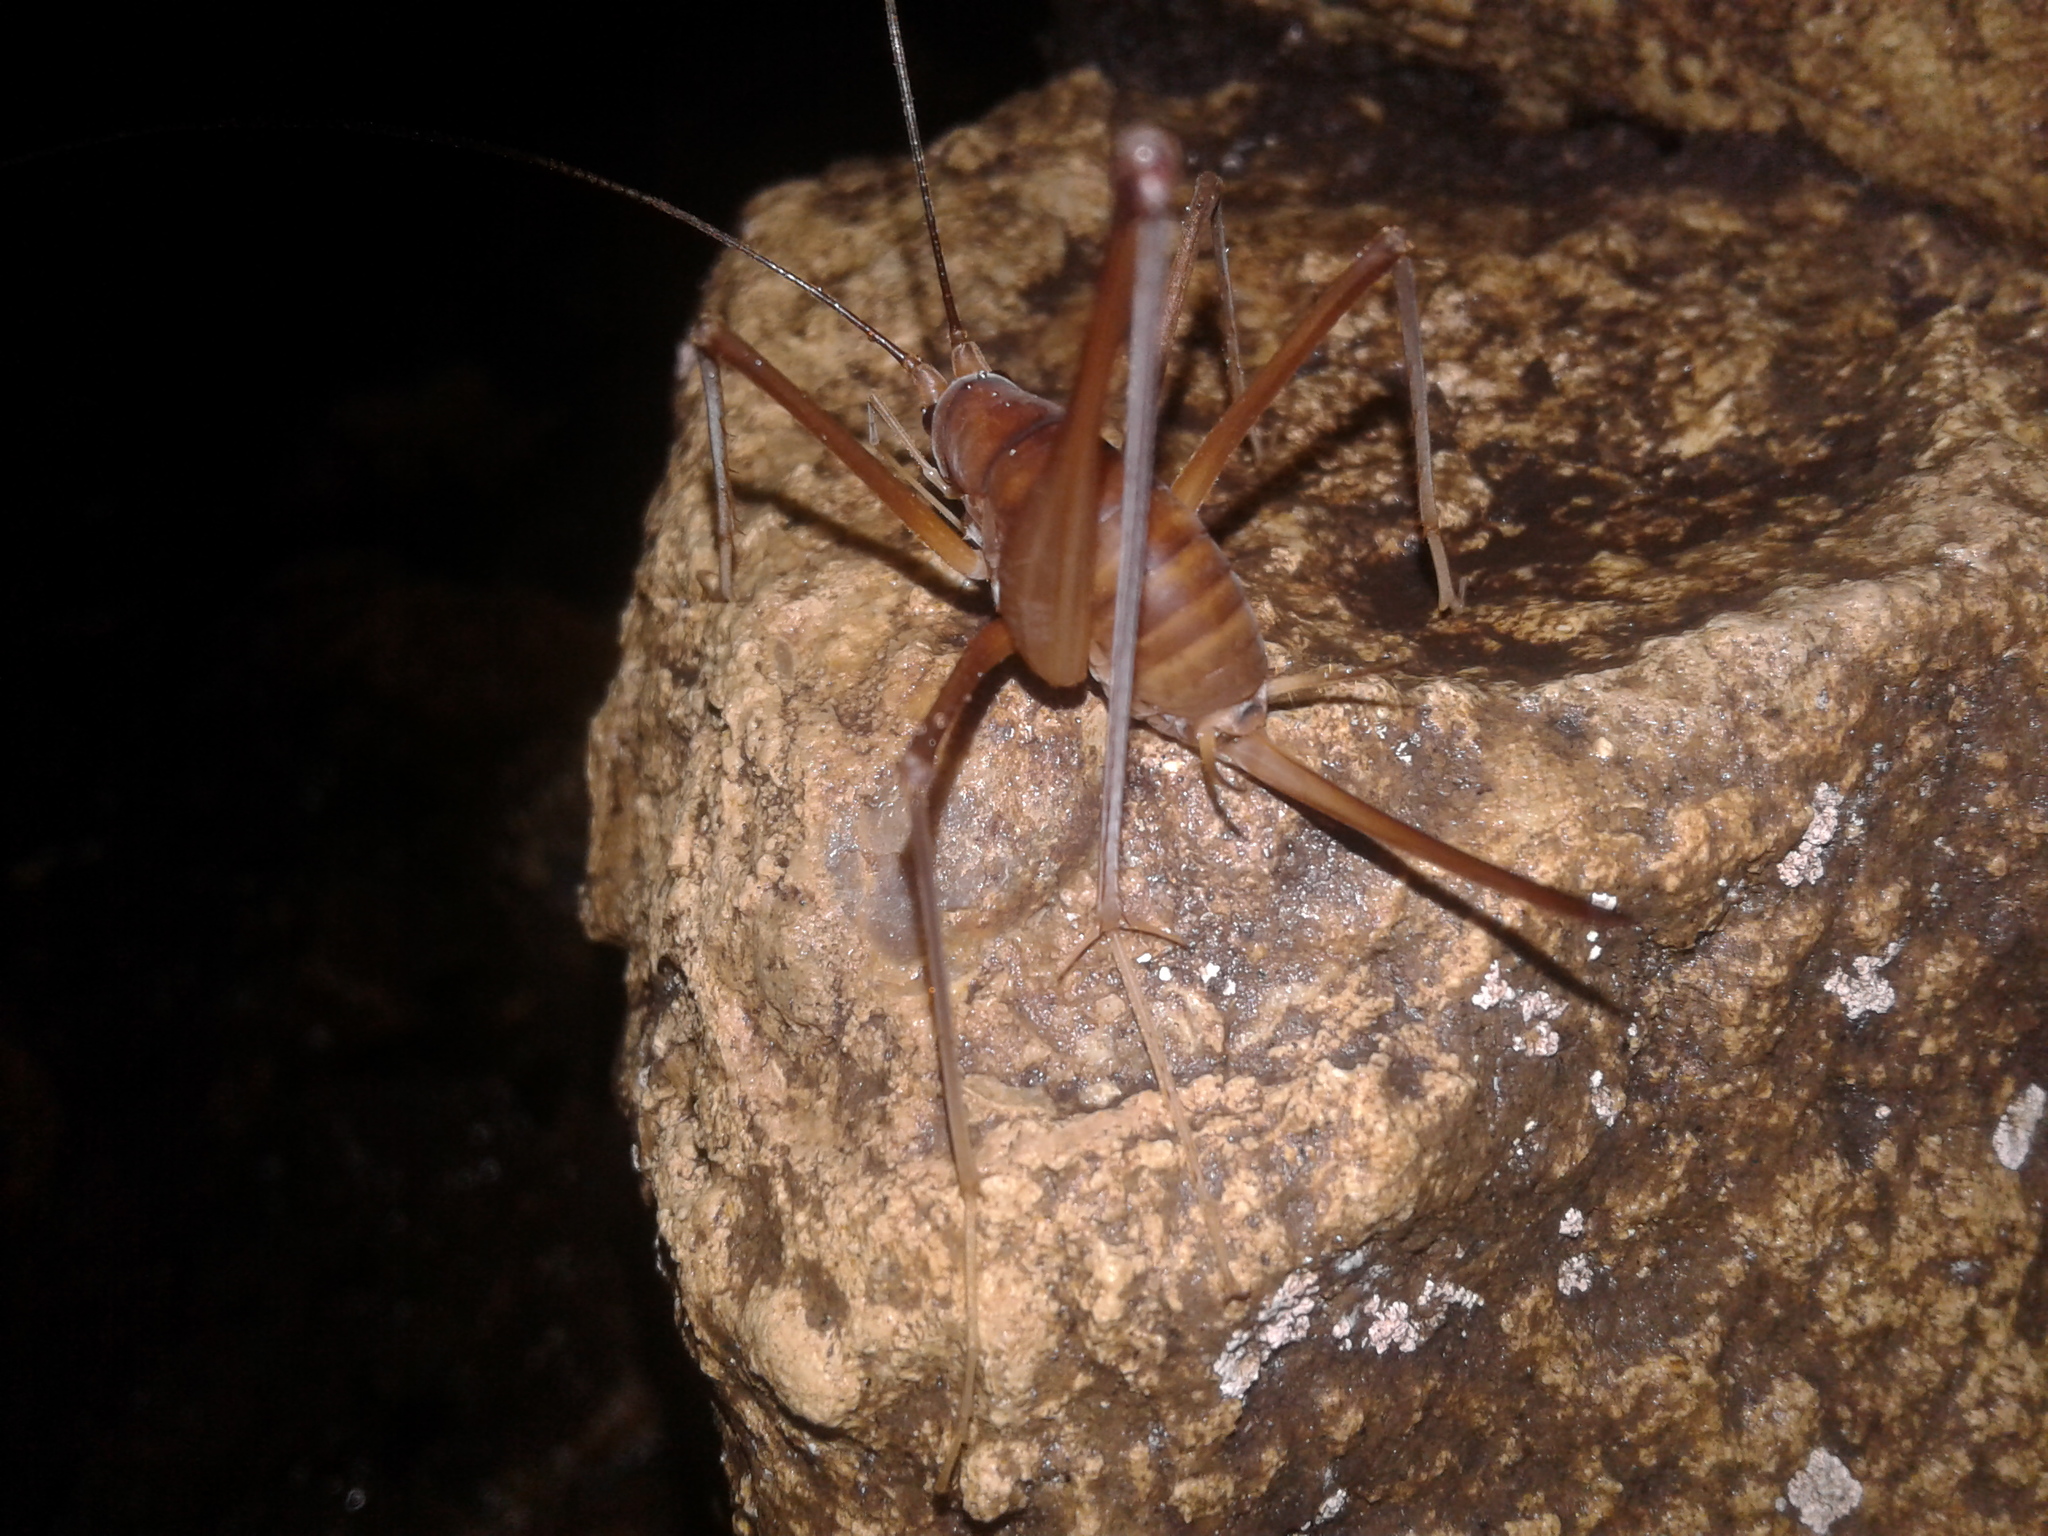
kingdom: Animalia
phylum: Arthropoda
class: Insecta
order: Orthoptera
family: Rhaphidophoridae
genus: Pachyrhamma
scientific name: Pachyrhamma delli
